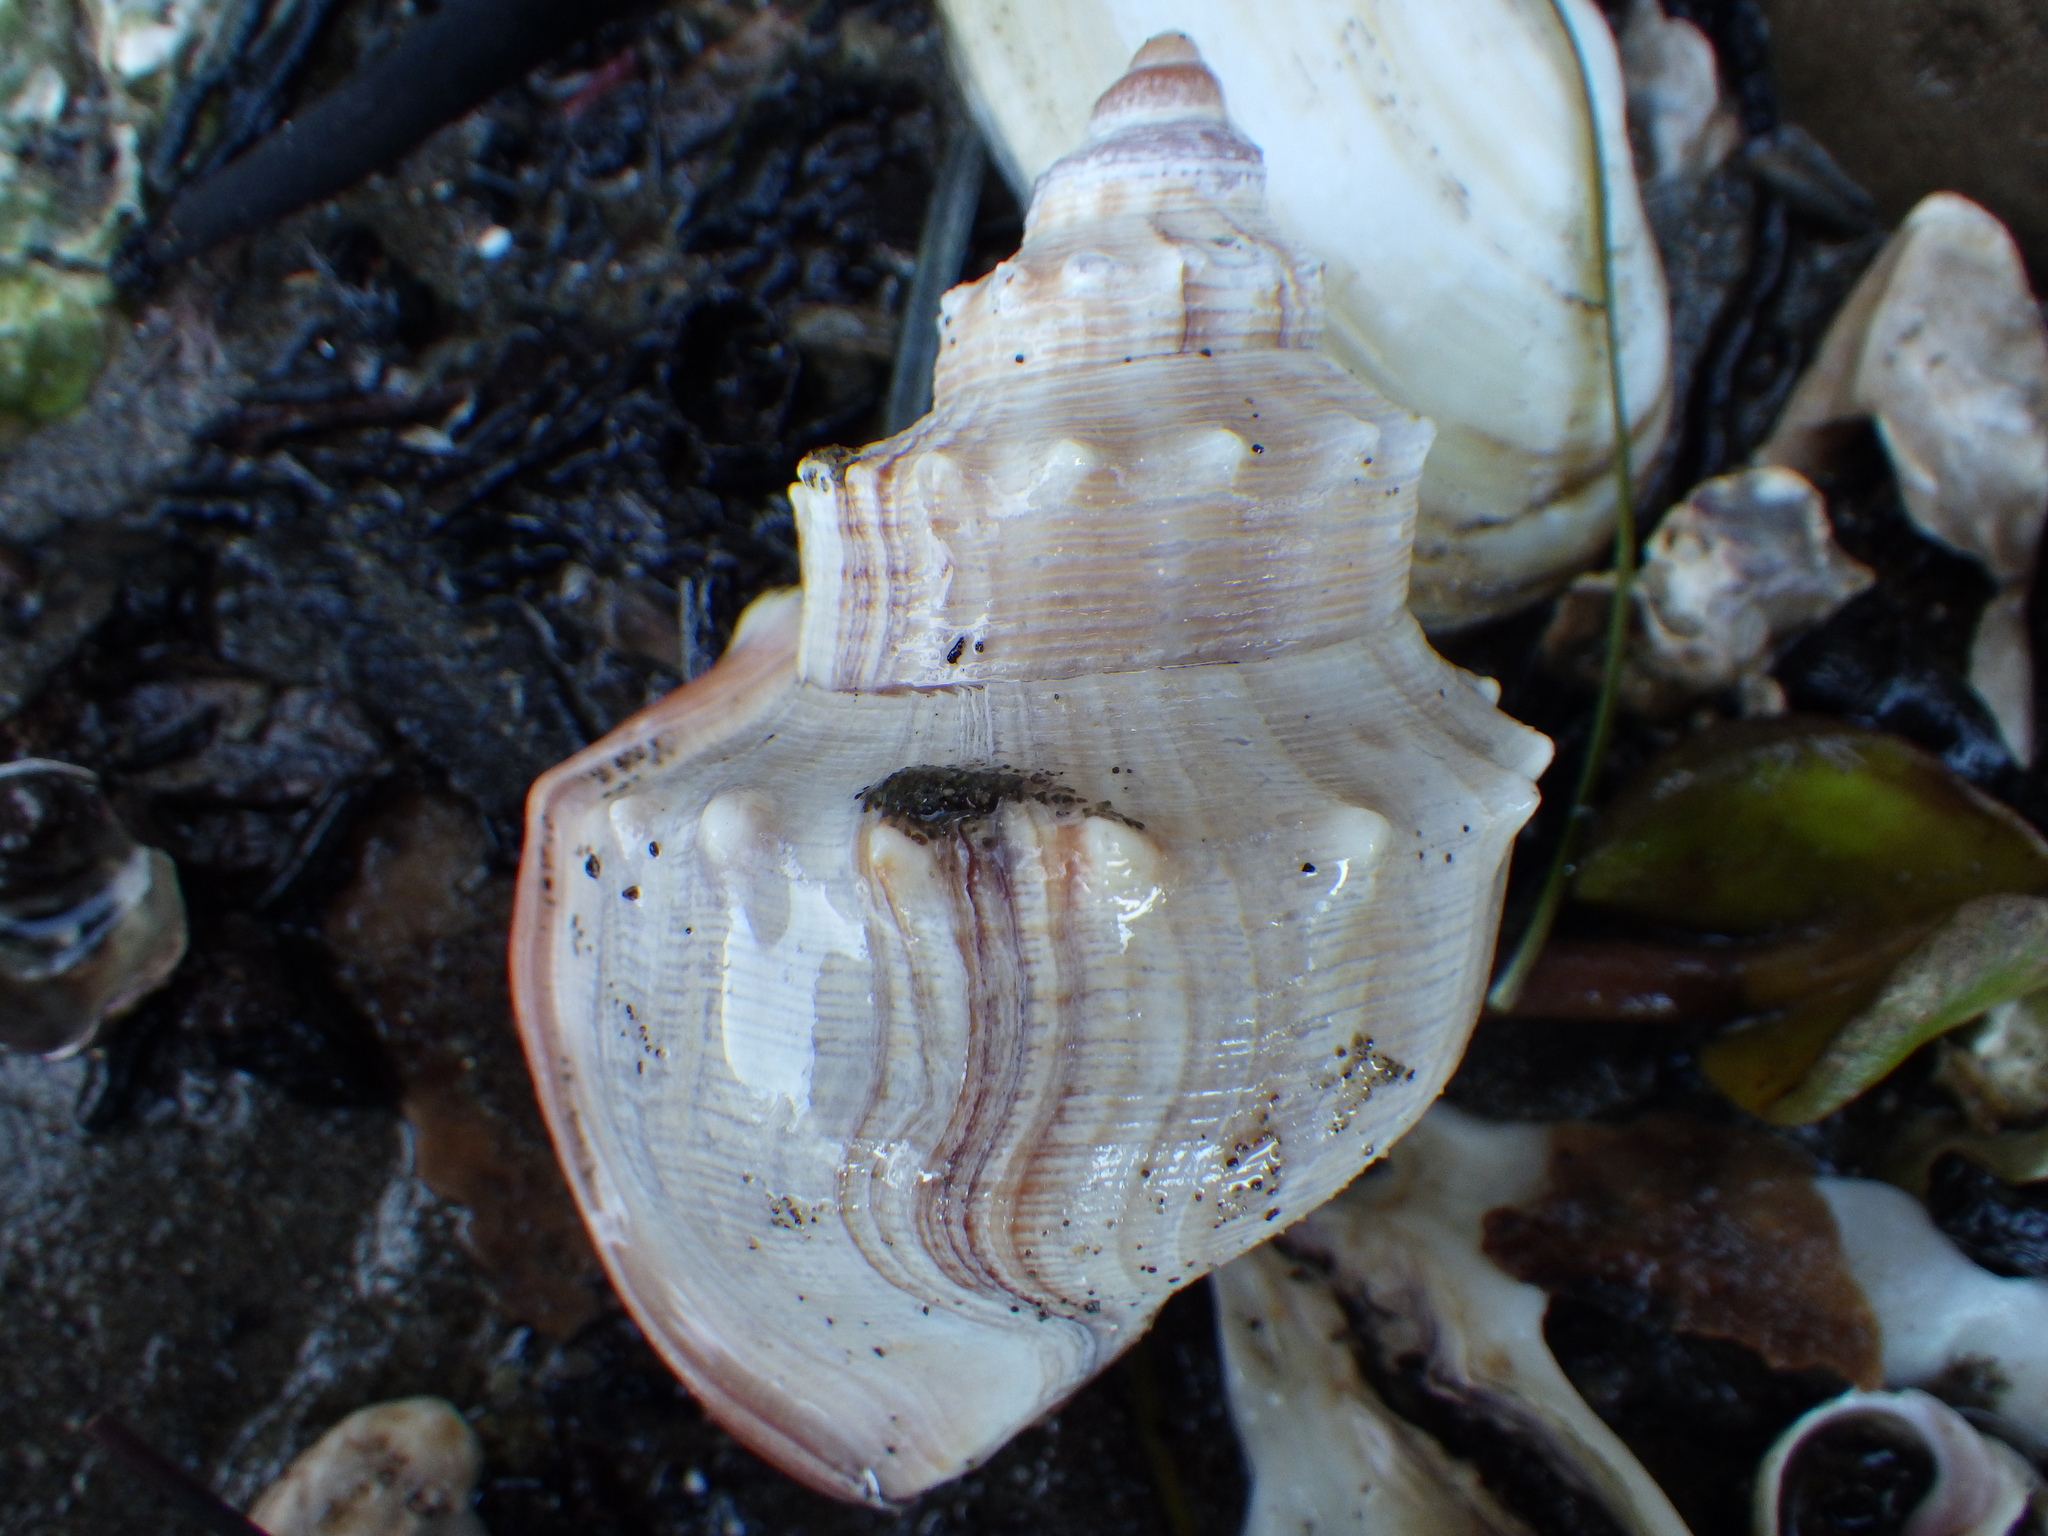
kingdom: Animalia
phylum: Mollusca
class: Gastropoda
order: Littorinimorpha
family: Struthiolariidae
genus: Struthiolaria
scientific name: Struthiolaria papulosa
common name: Large ostrich foot
